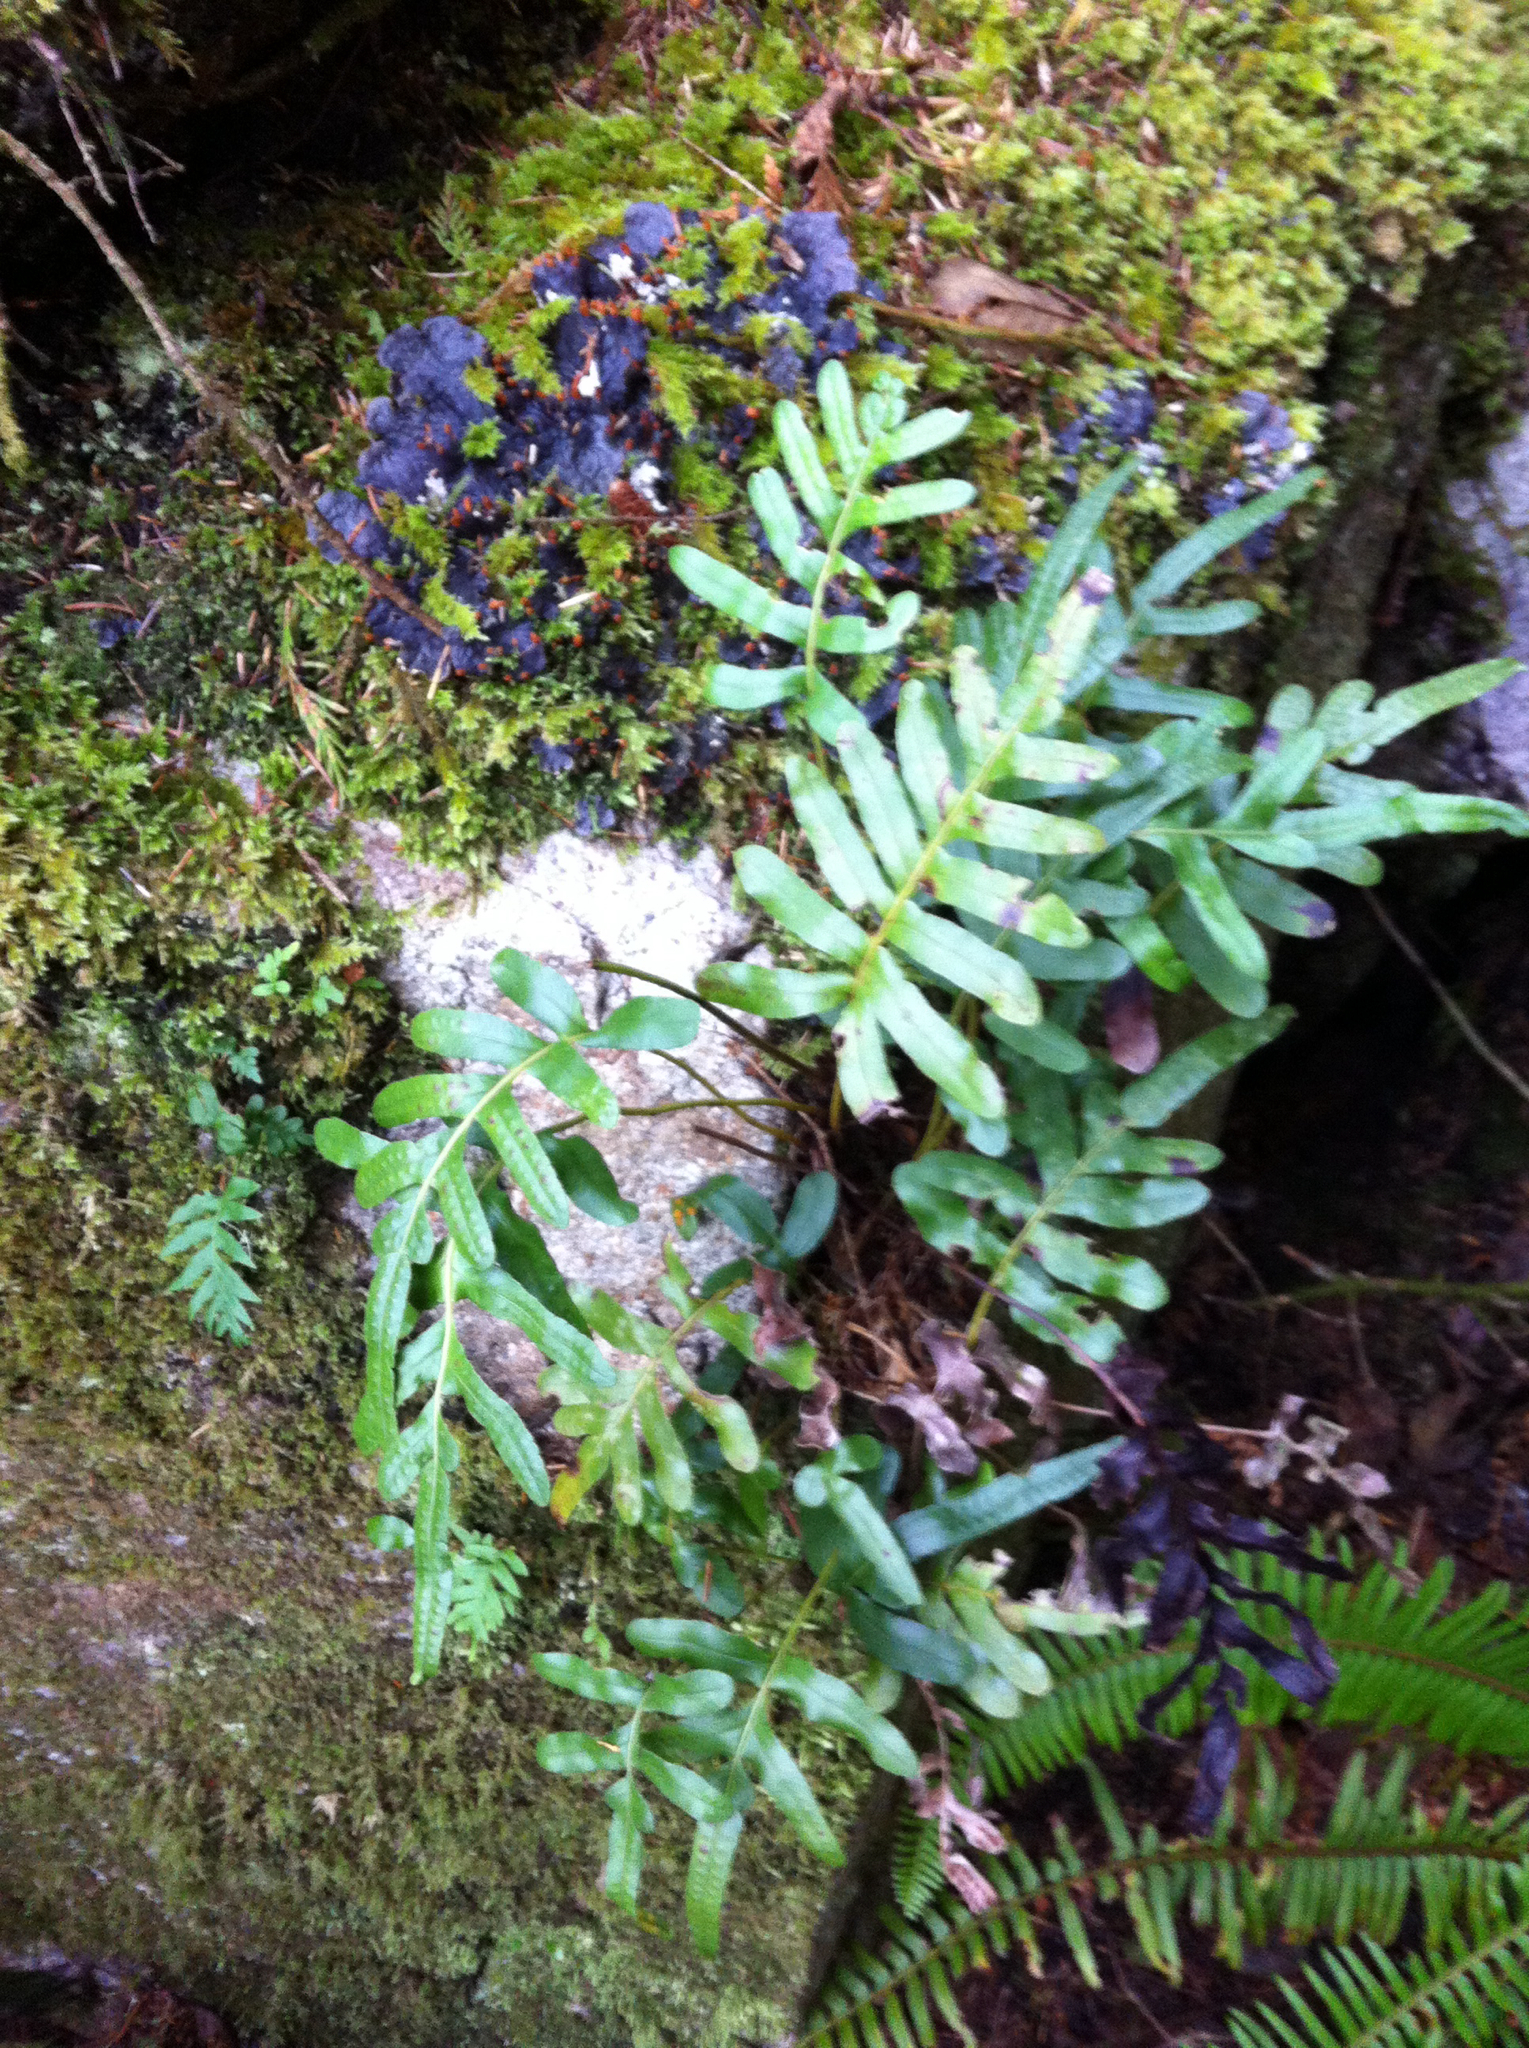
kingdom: Plantae
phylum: Tracheophyta
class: Polypodiopsida
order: Polypodiales
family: Polypodiaceae
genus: Polypodium
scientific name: Polypodium scouleri
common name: Scouler's polypody
